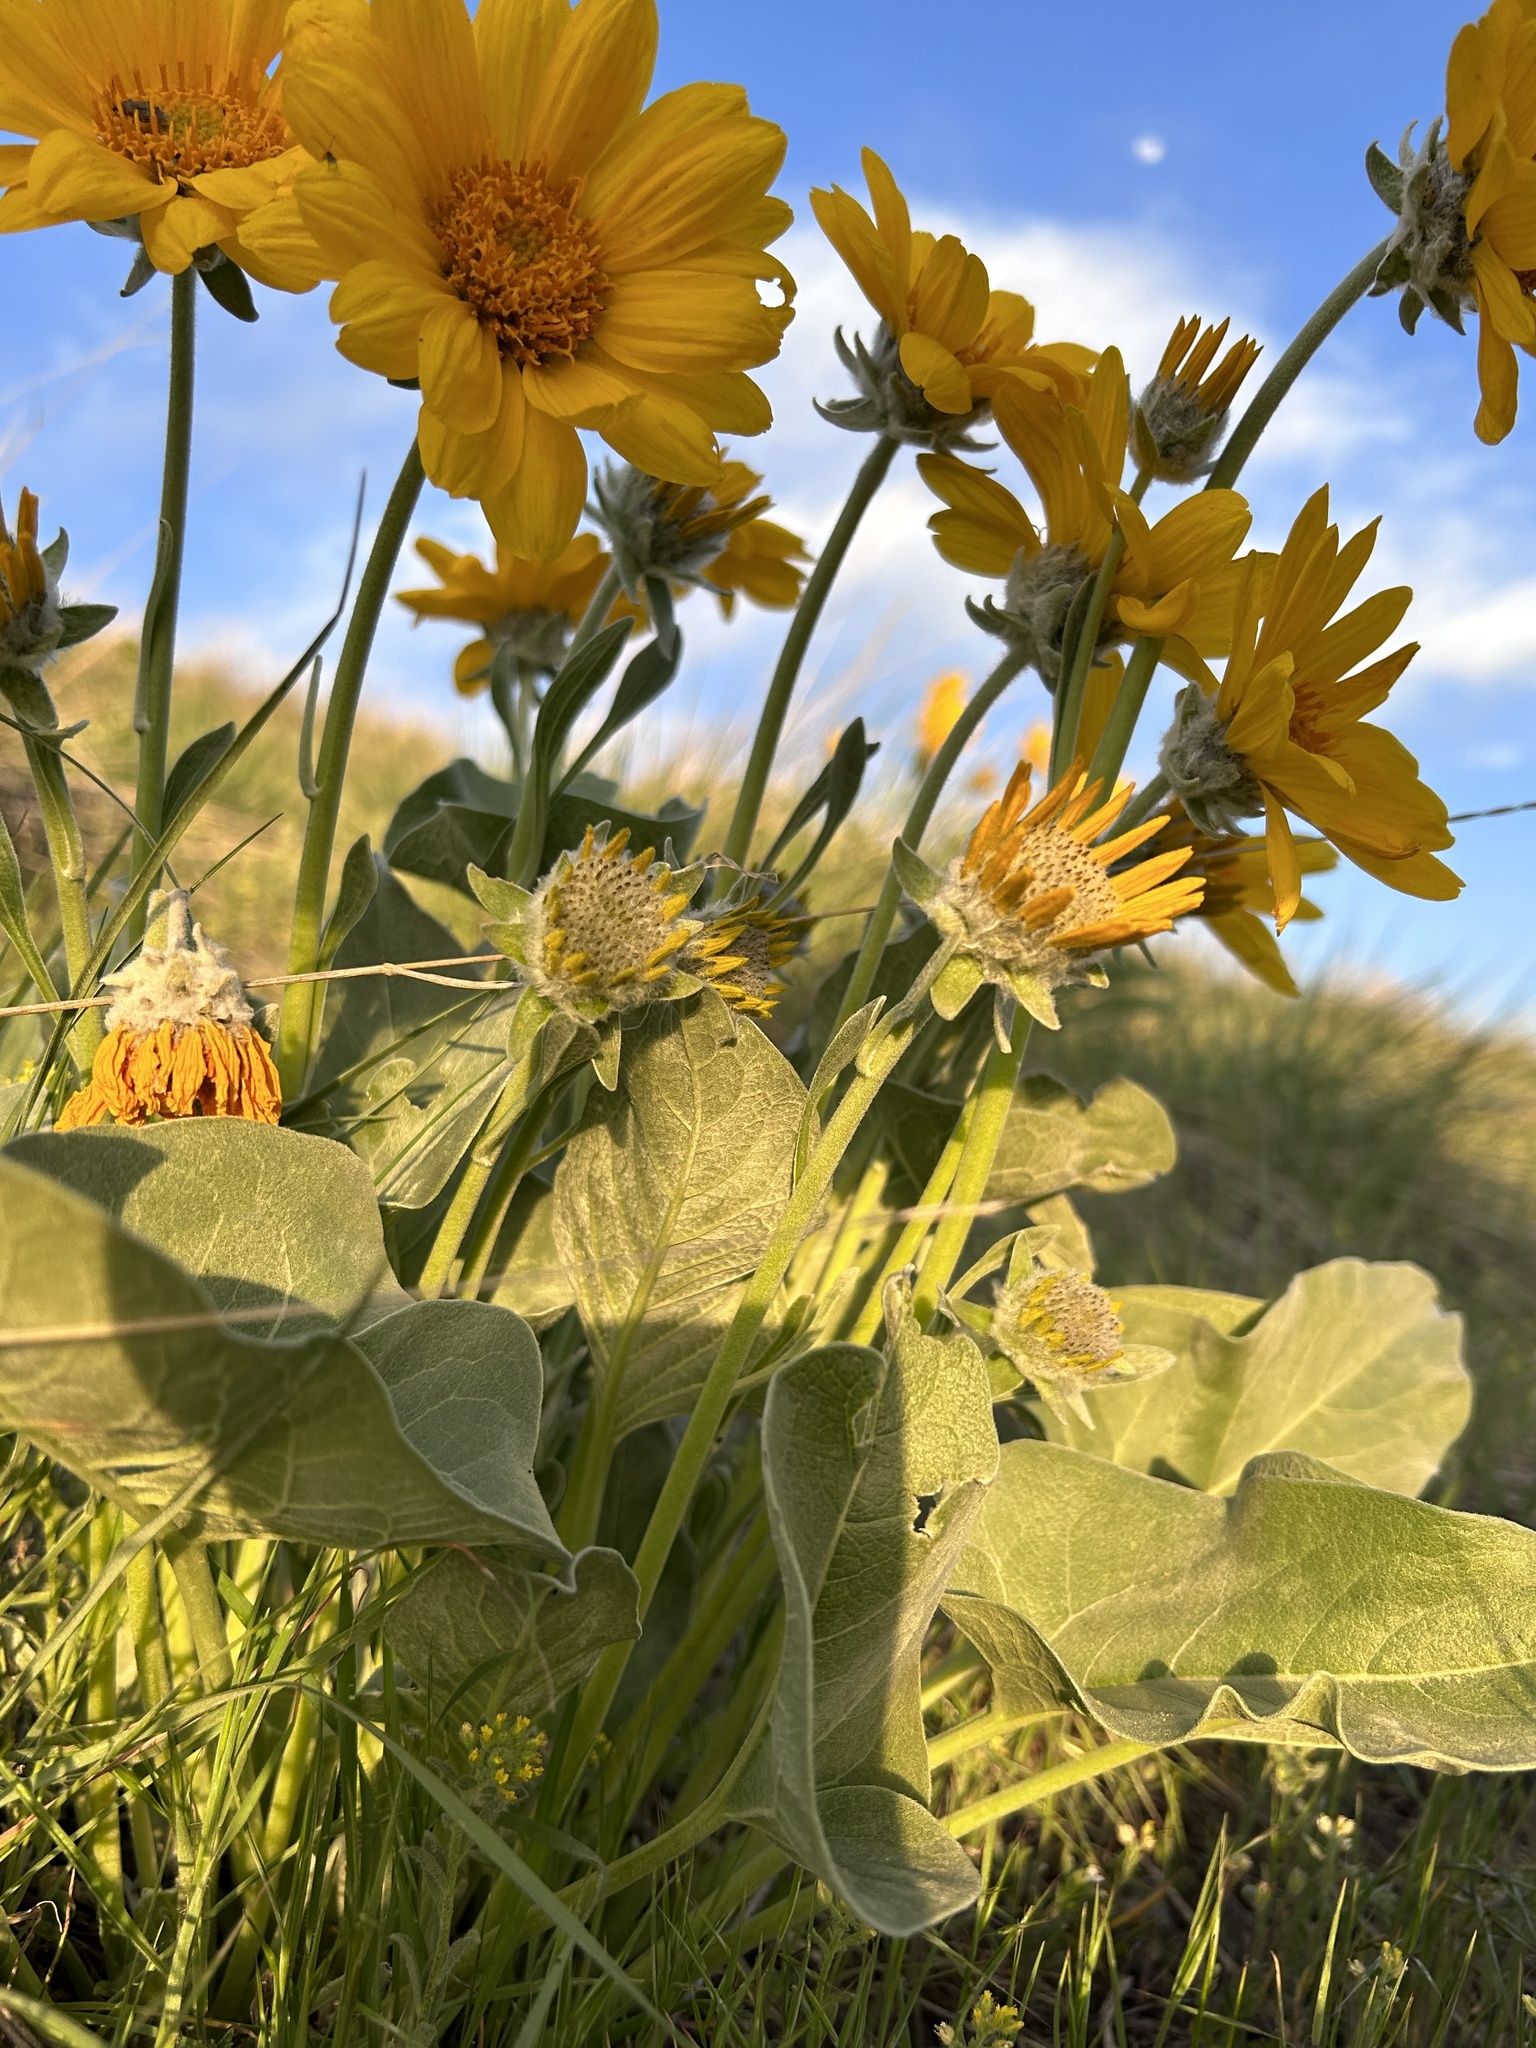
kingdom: Plantae
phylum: Tracheophyta
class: Magnoliopsida
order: Asterales
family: Asteraceae
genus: Wyethia
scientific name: Wyethia sagittata
